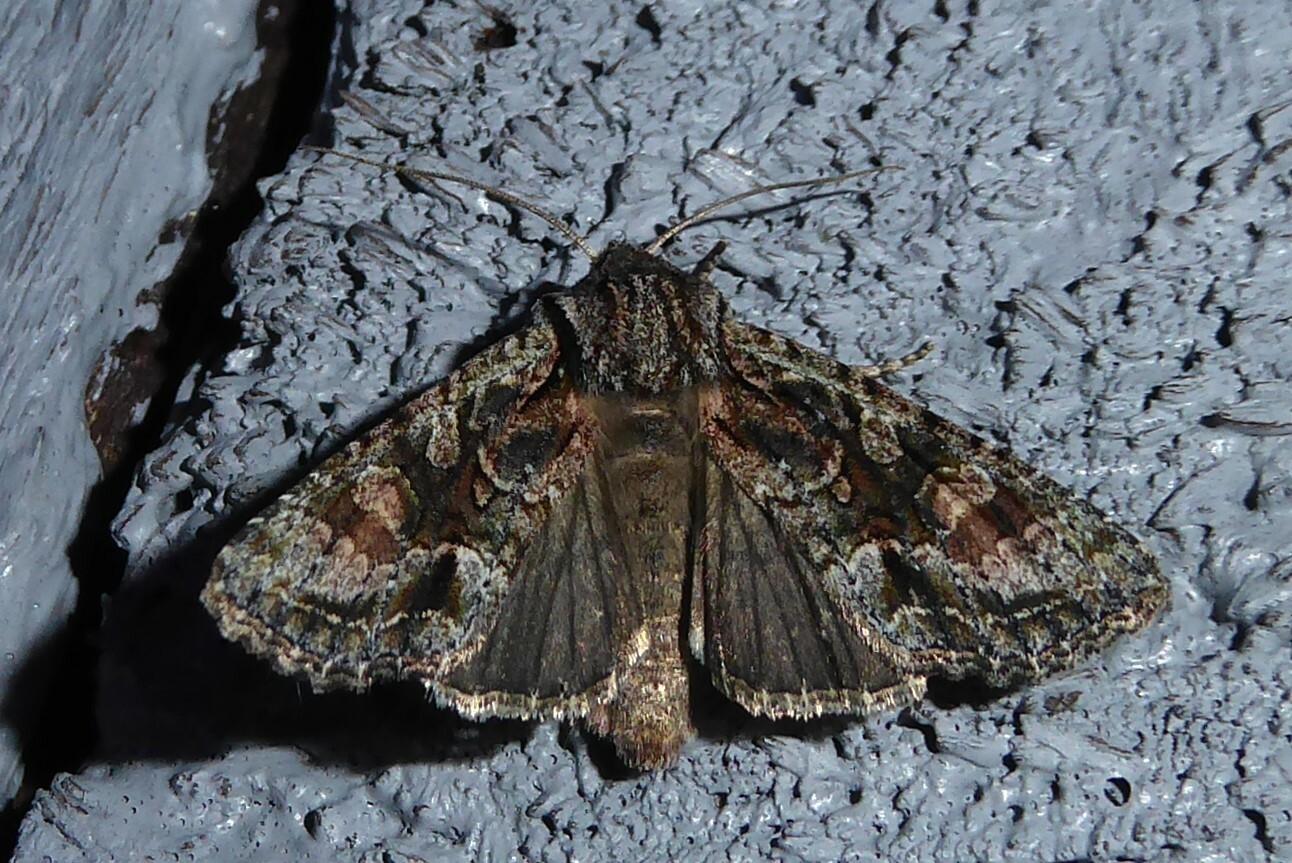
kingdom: Animalia
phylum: Arthropoda
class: Insecta
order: Lepidoptera
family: Noctuidae
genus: Ichneutica
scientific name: Ichneutica mutans
